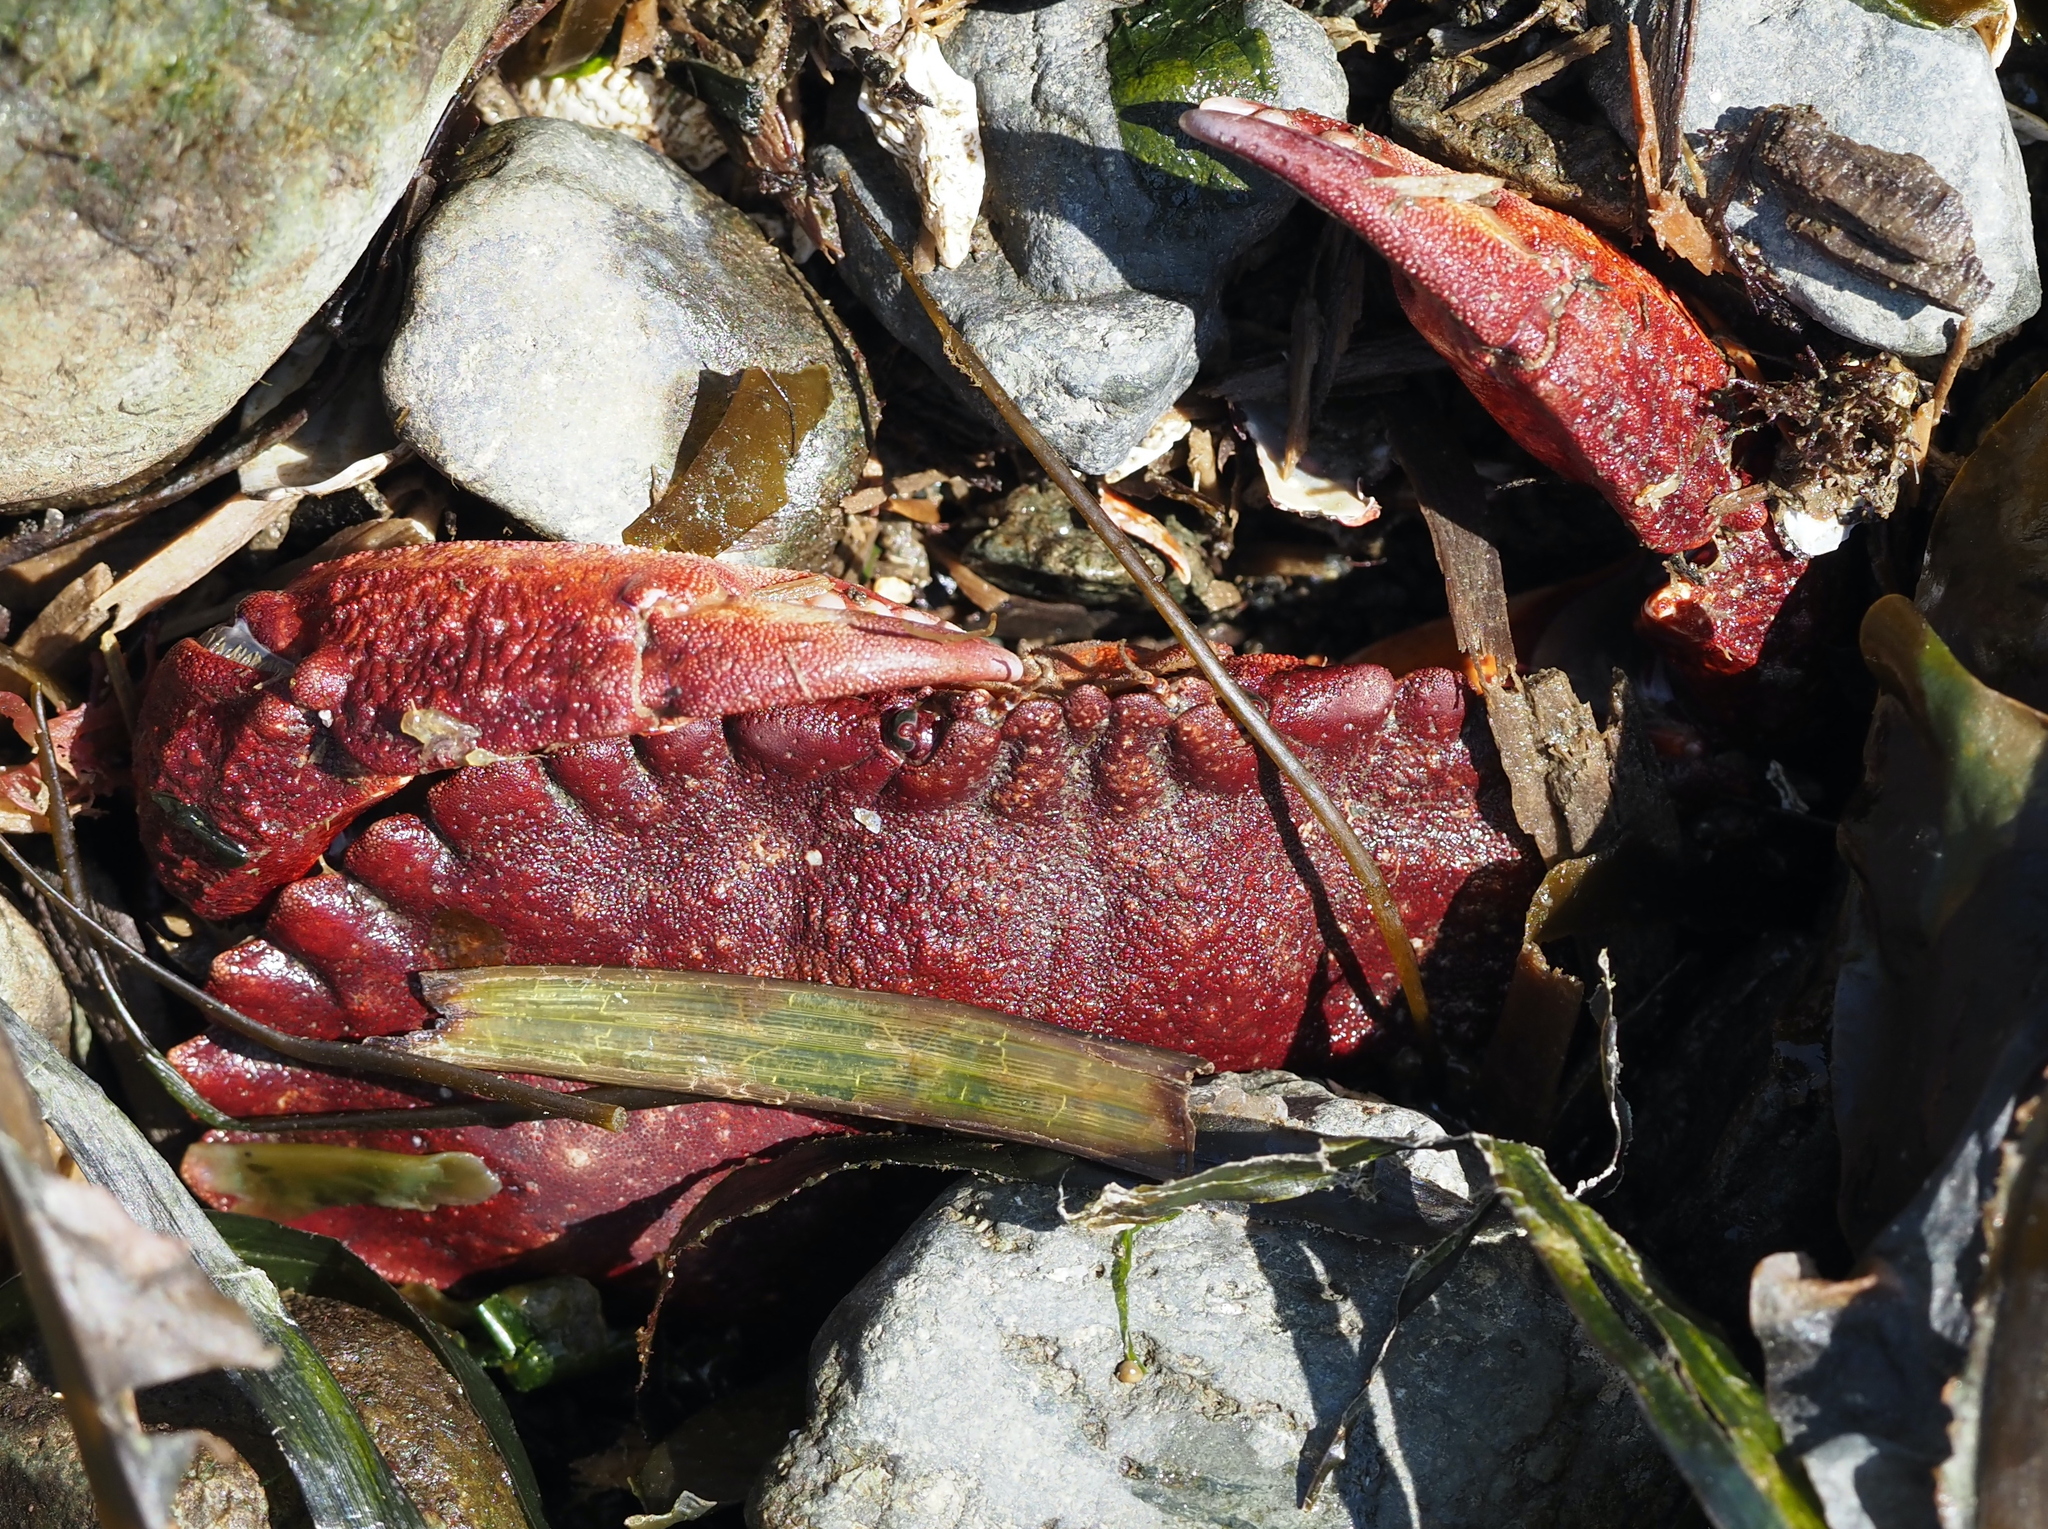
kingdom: Animalia
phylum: Arthropoda
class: Malacostraca
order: Decapoda
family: Cancridae
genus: Cancer
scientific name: Cancer productus
